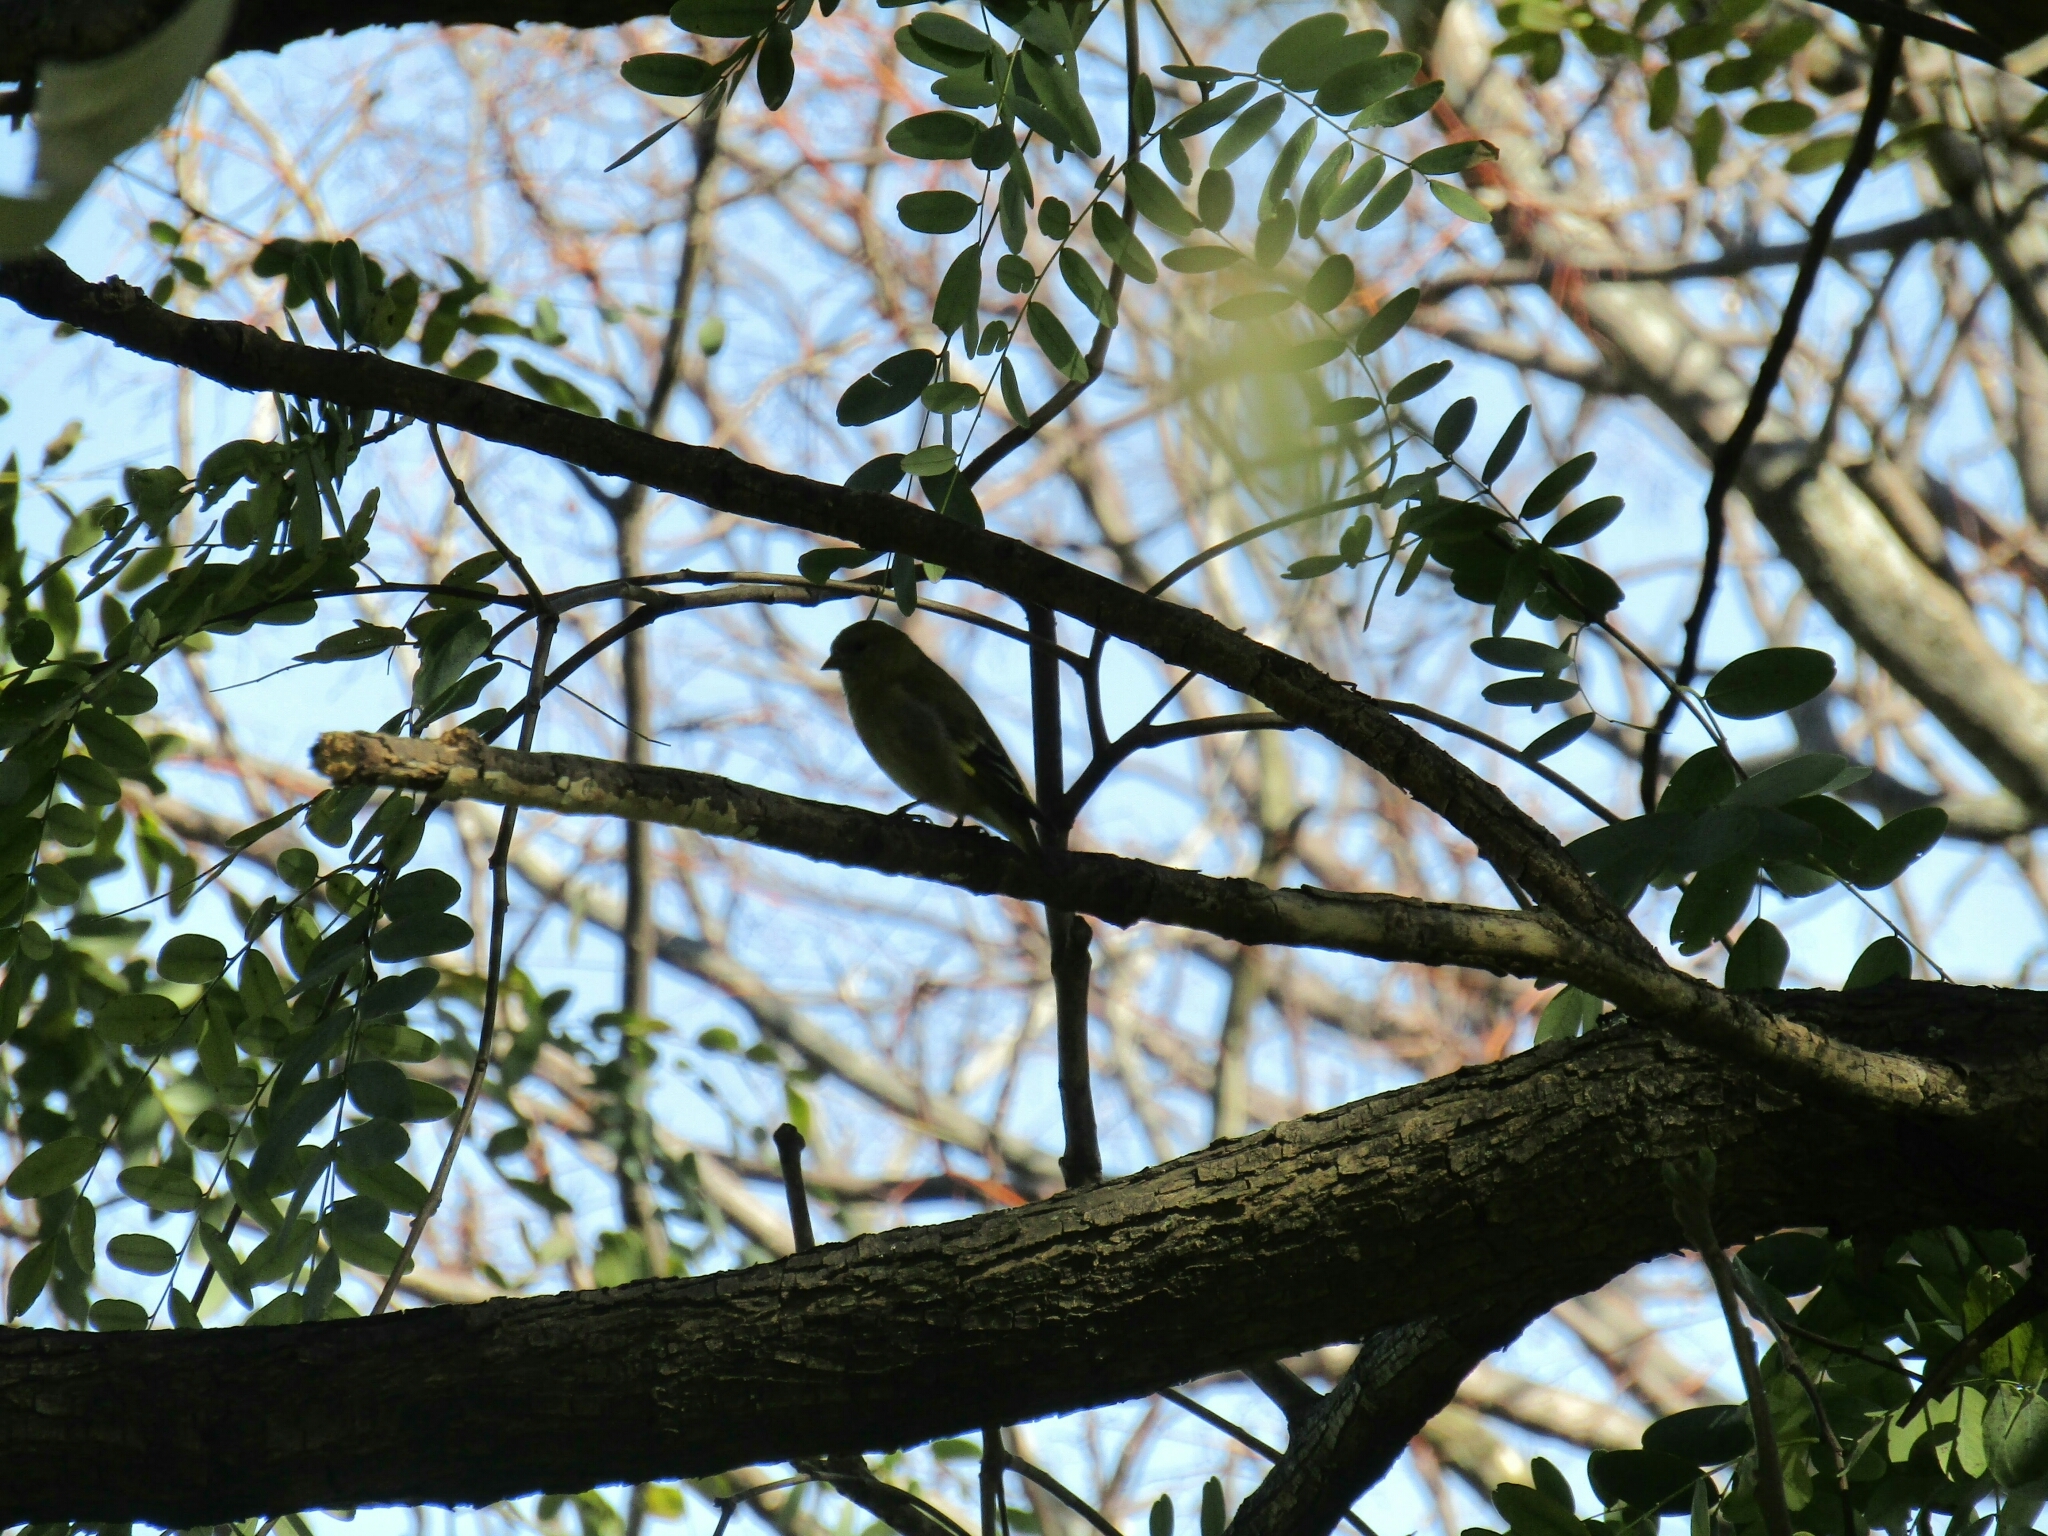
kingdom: Animalia
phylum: Chordata
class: Aves
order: Passeriformes
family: Fringillidae
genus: Spinus
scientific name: Spinus magellanicus
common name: Hooded siskin
